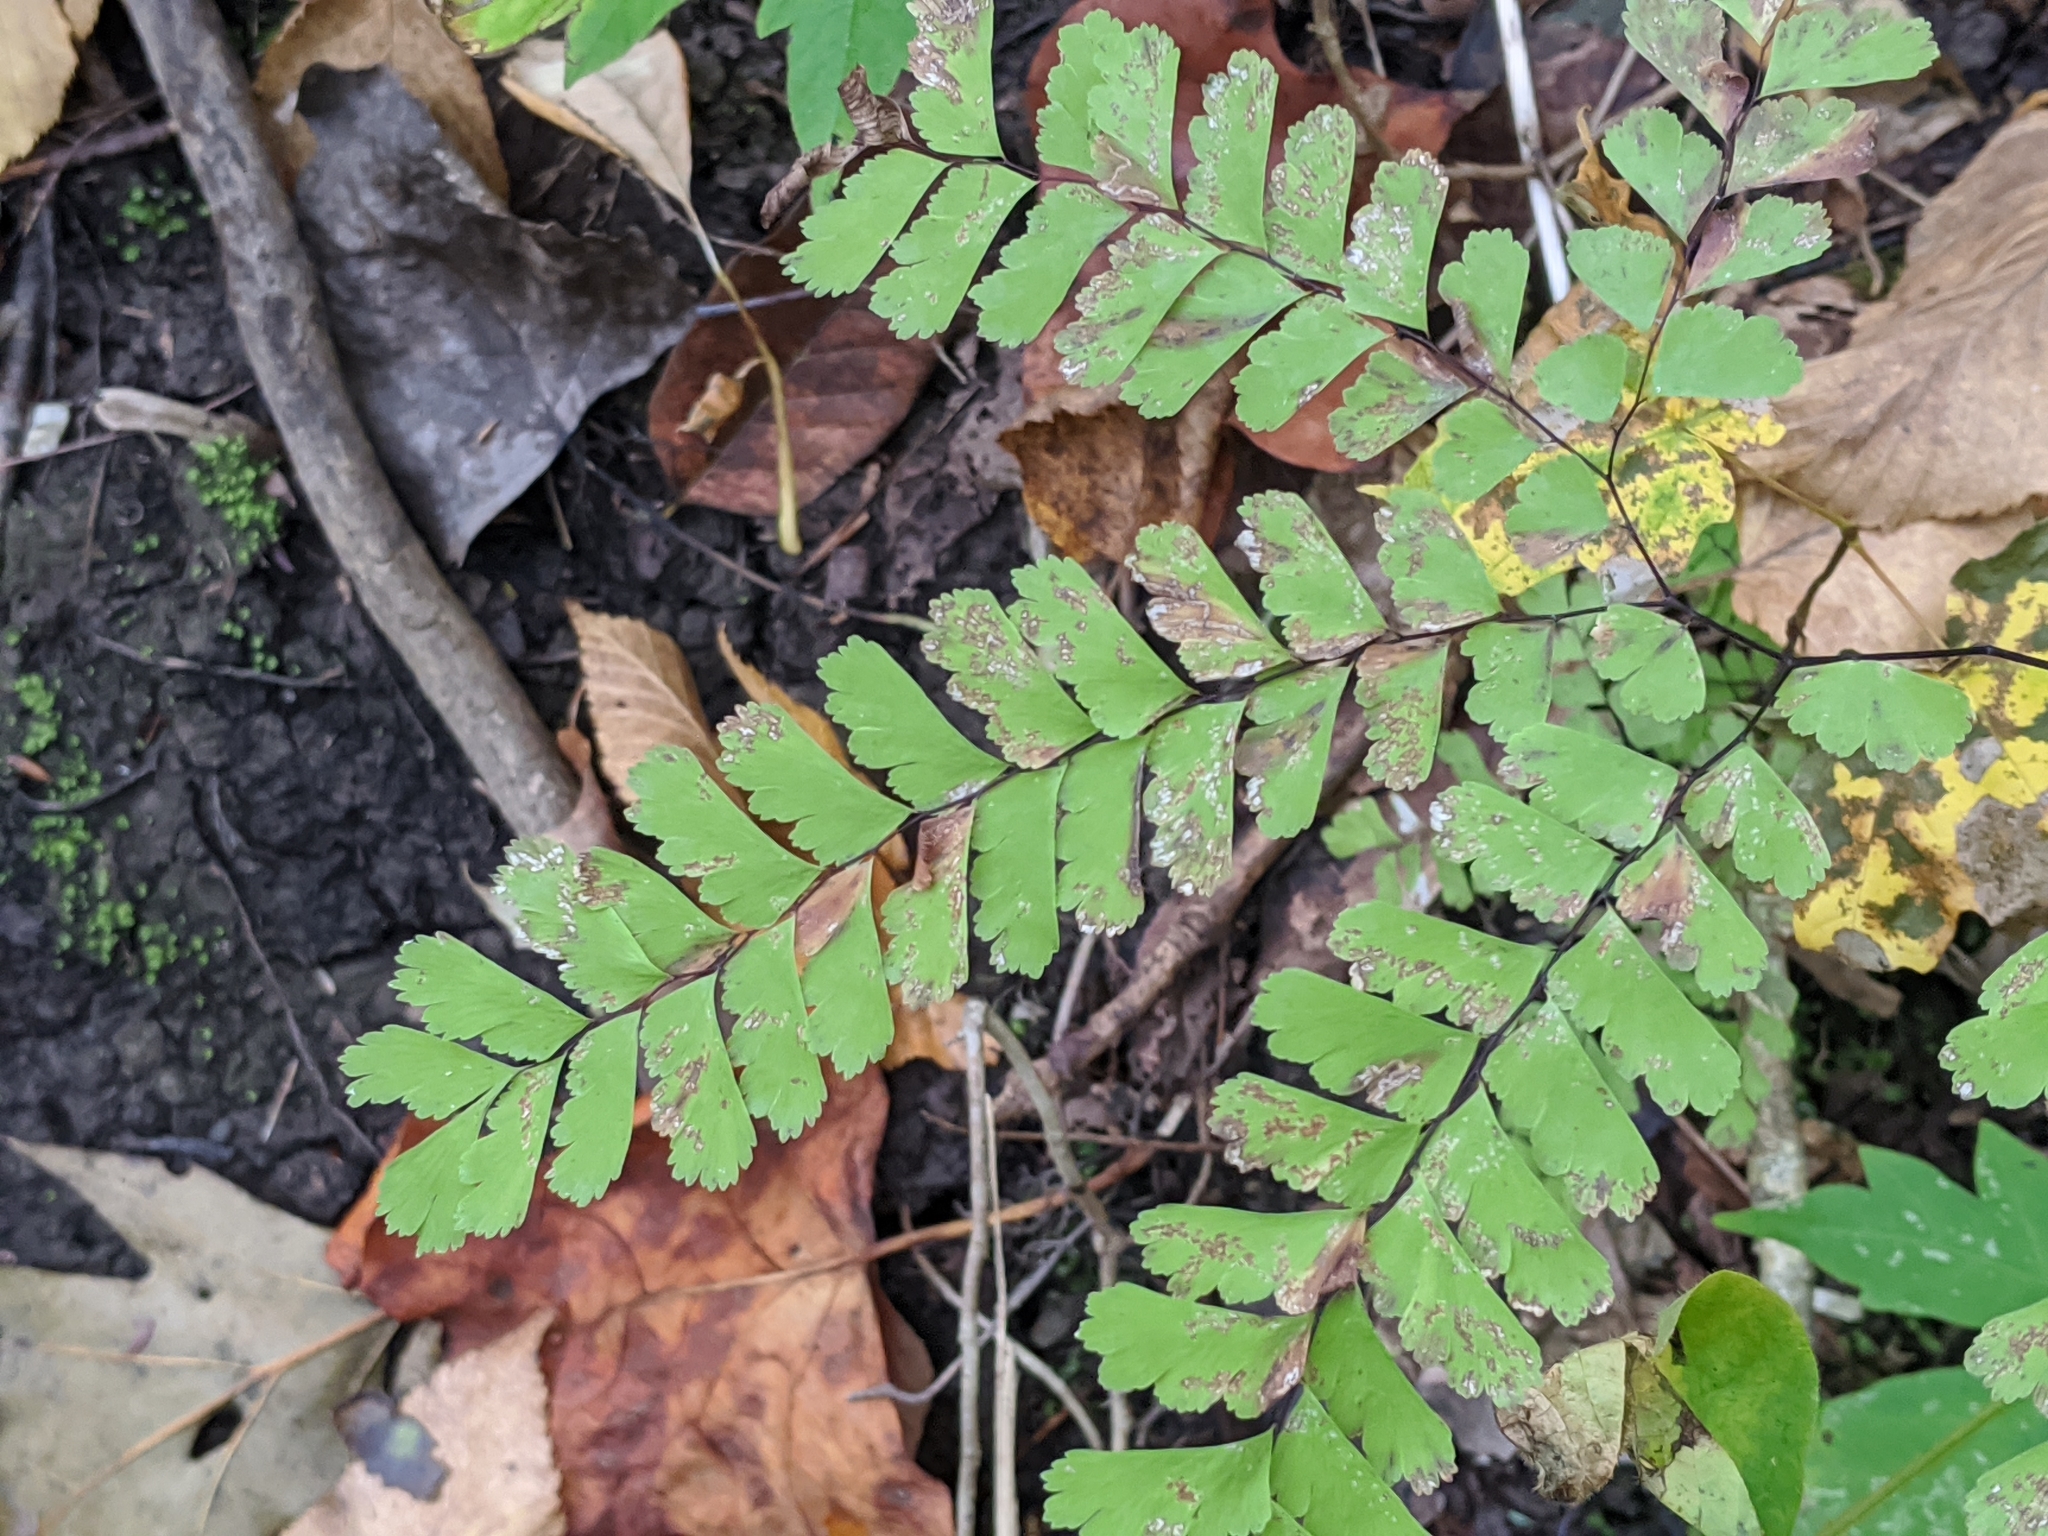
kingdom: Plantae
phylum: Tracheophyta
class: Polypodiopsida
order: Polypodiales
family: Pteridaceae
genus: Adiantum
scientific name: Adiantum pedatum
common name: Five-finger fern
